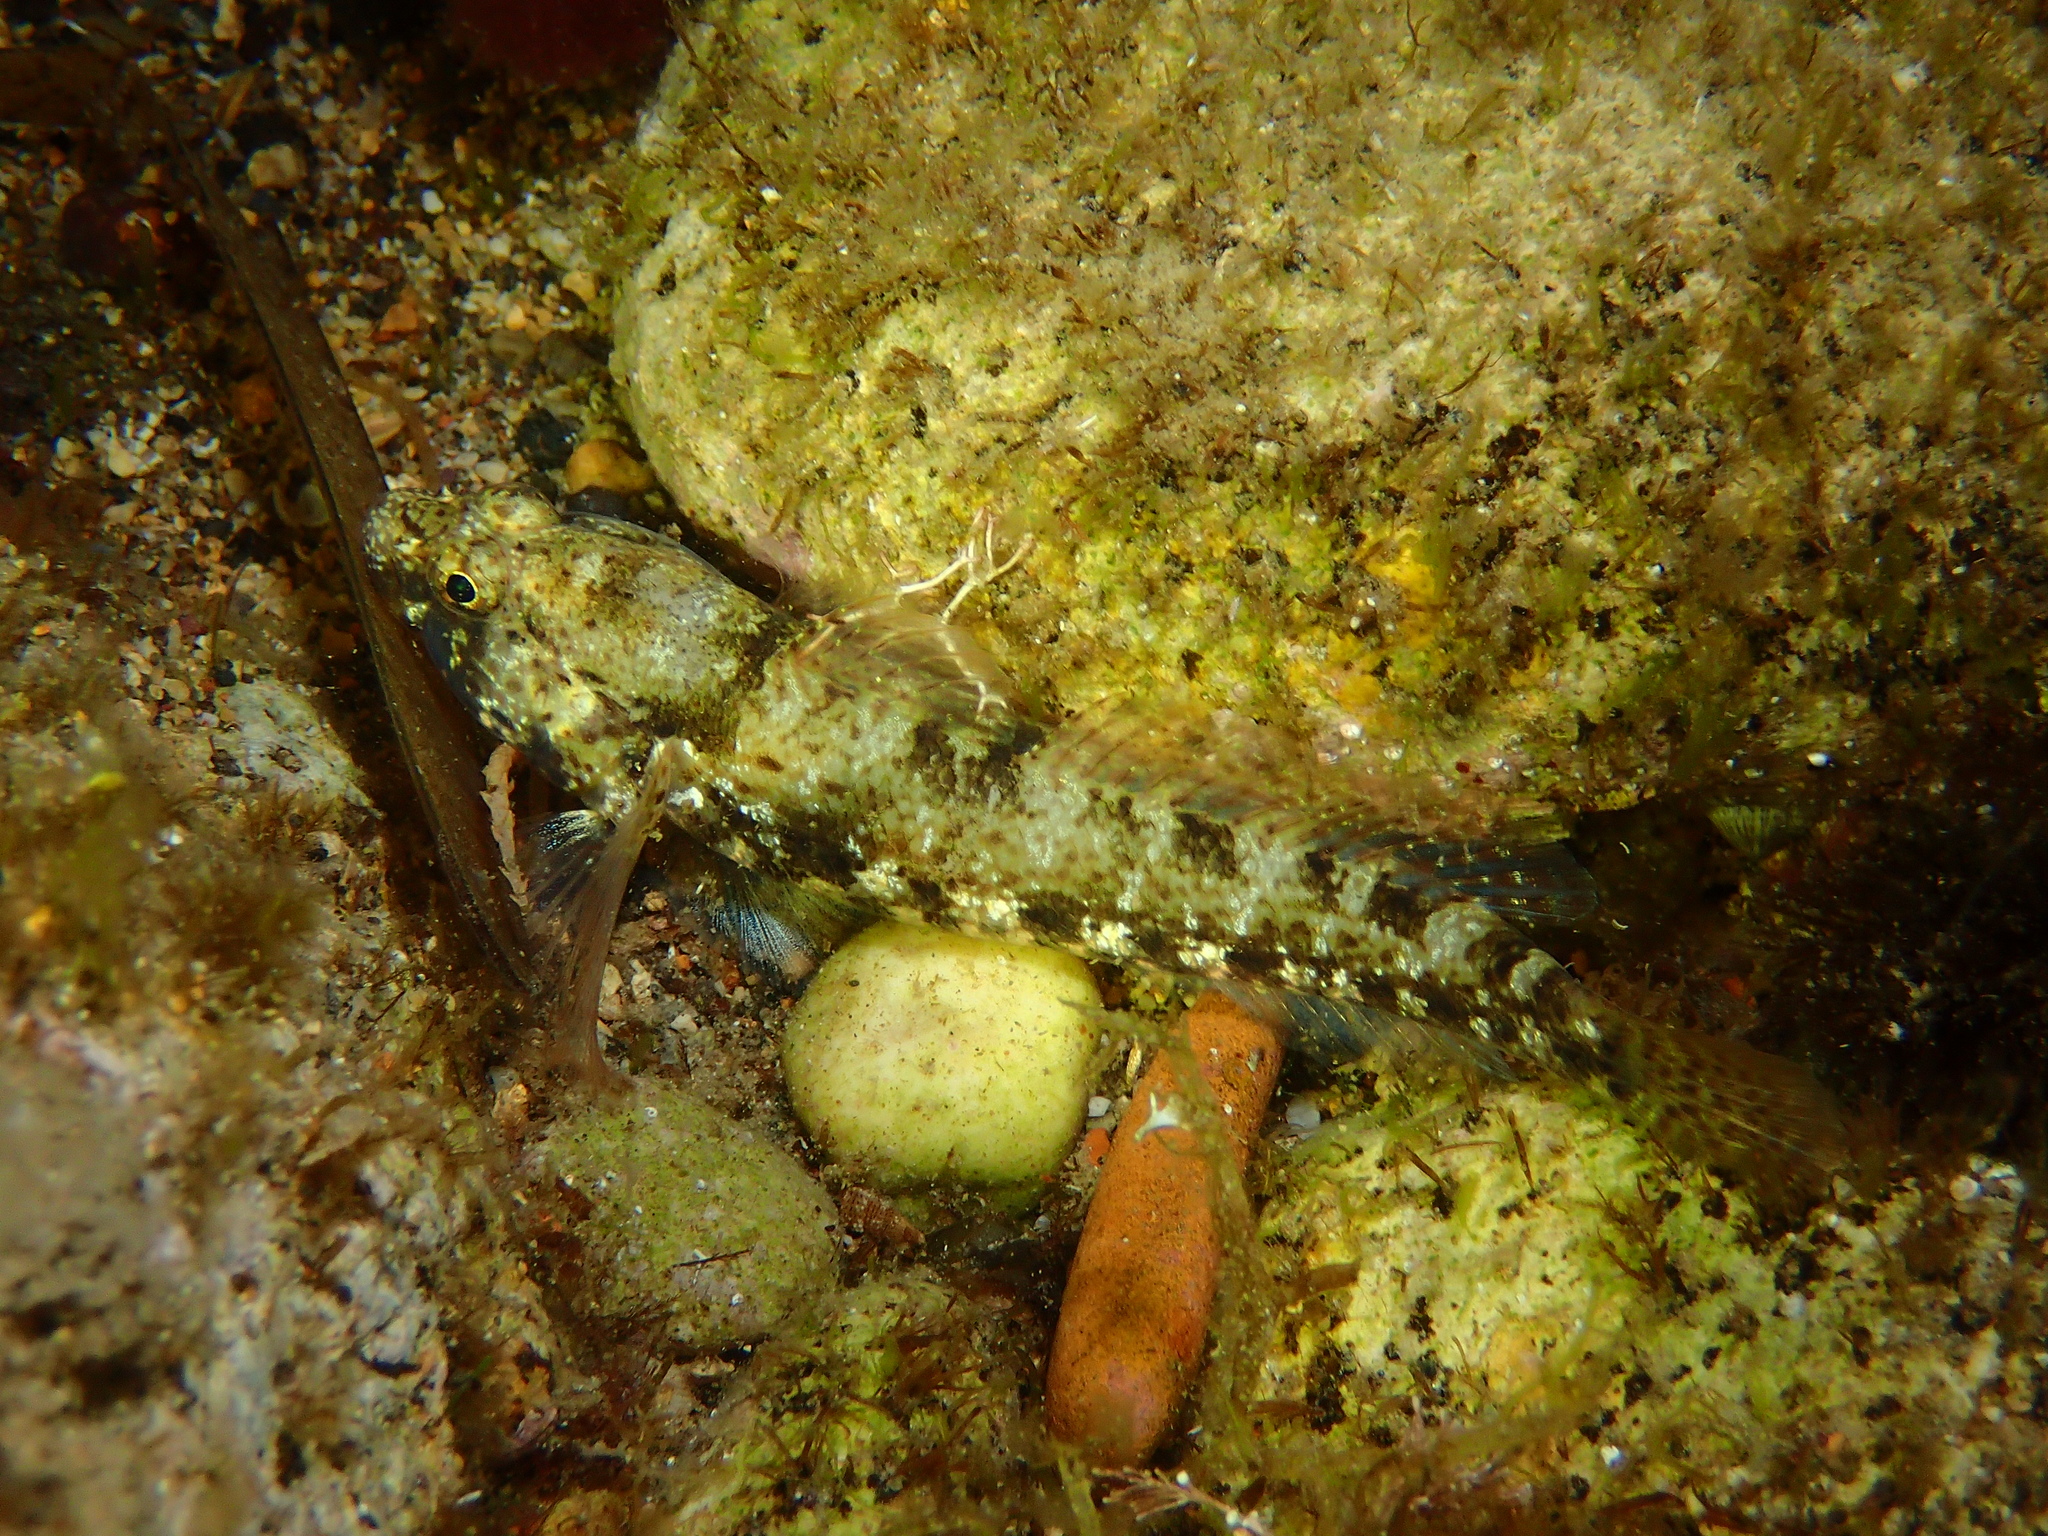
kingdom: Animalia
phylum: Chordata
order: Perciformes
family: Gobiidae
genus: Gobius
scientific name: Gobius incognitus
